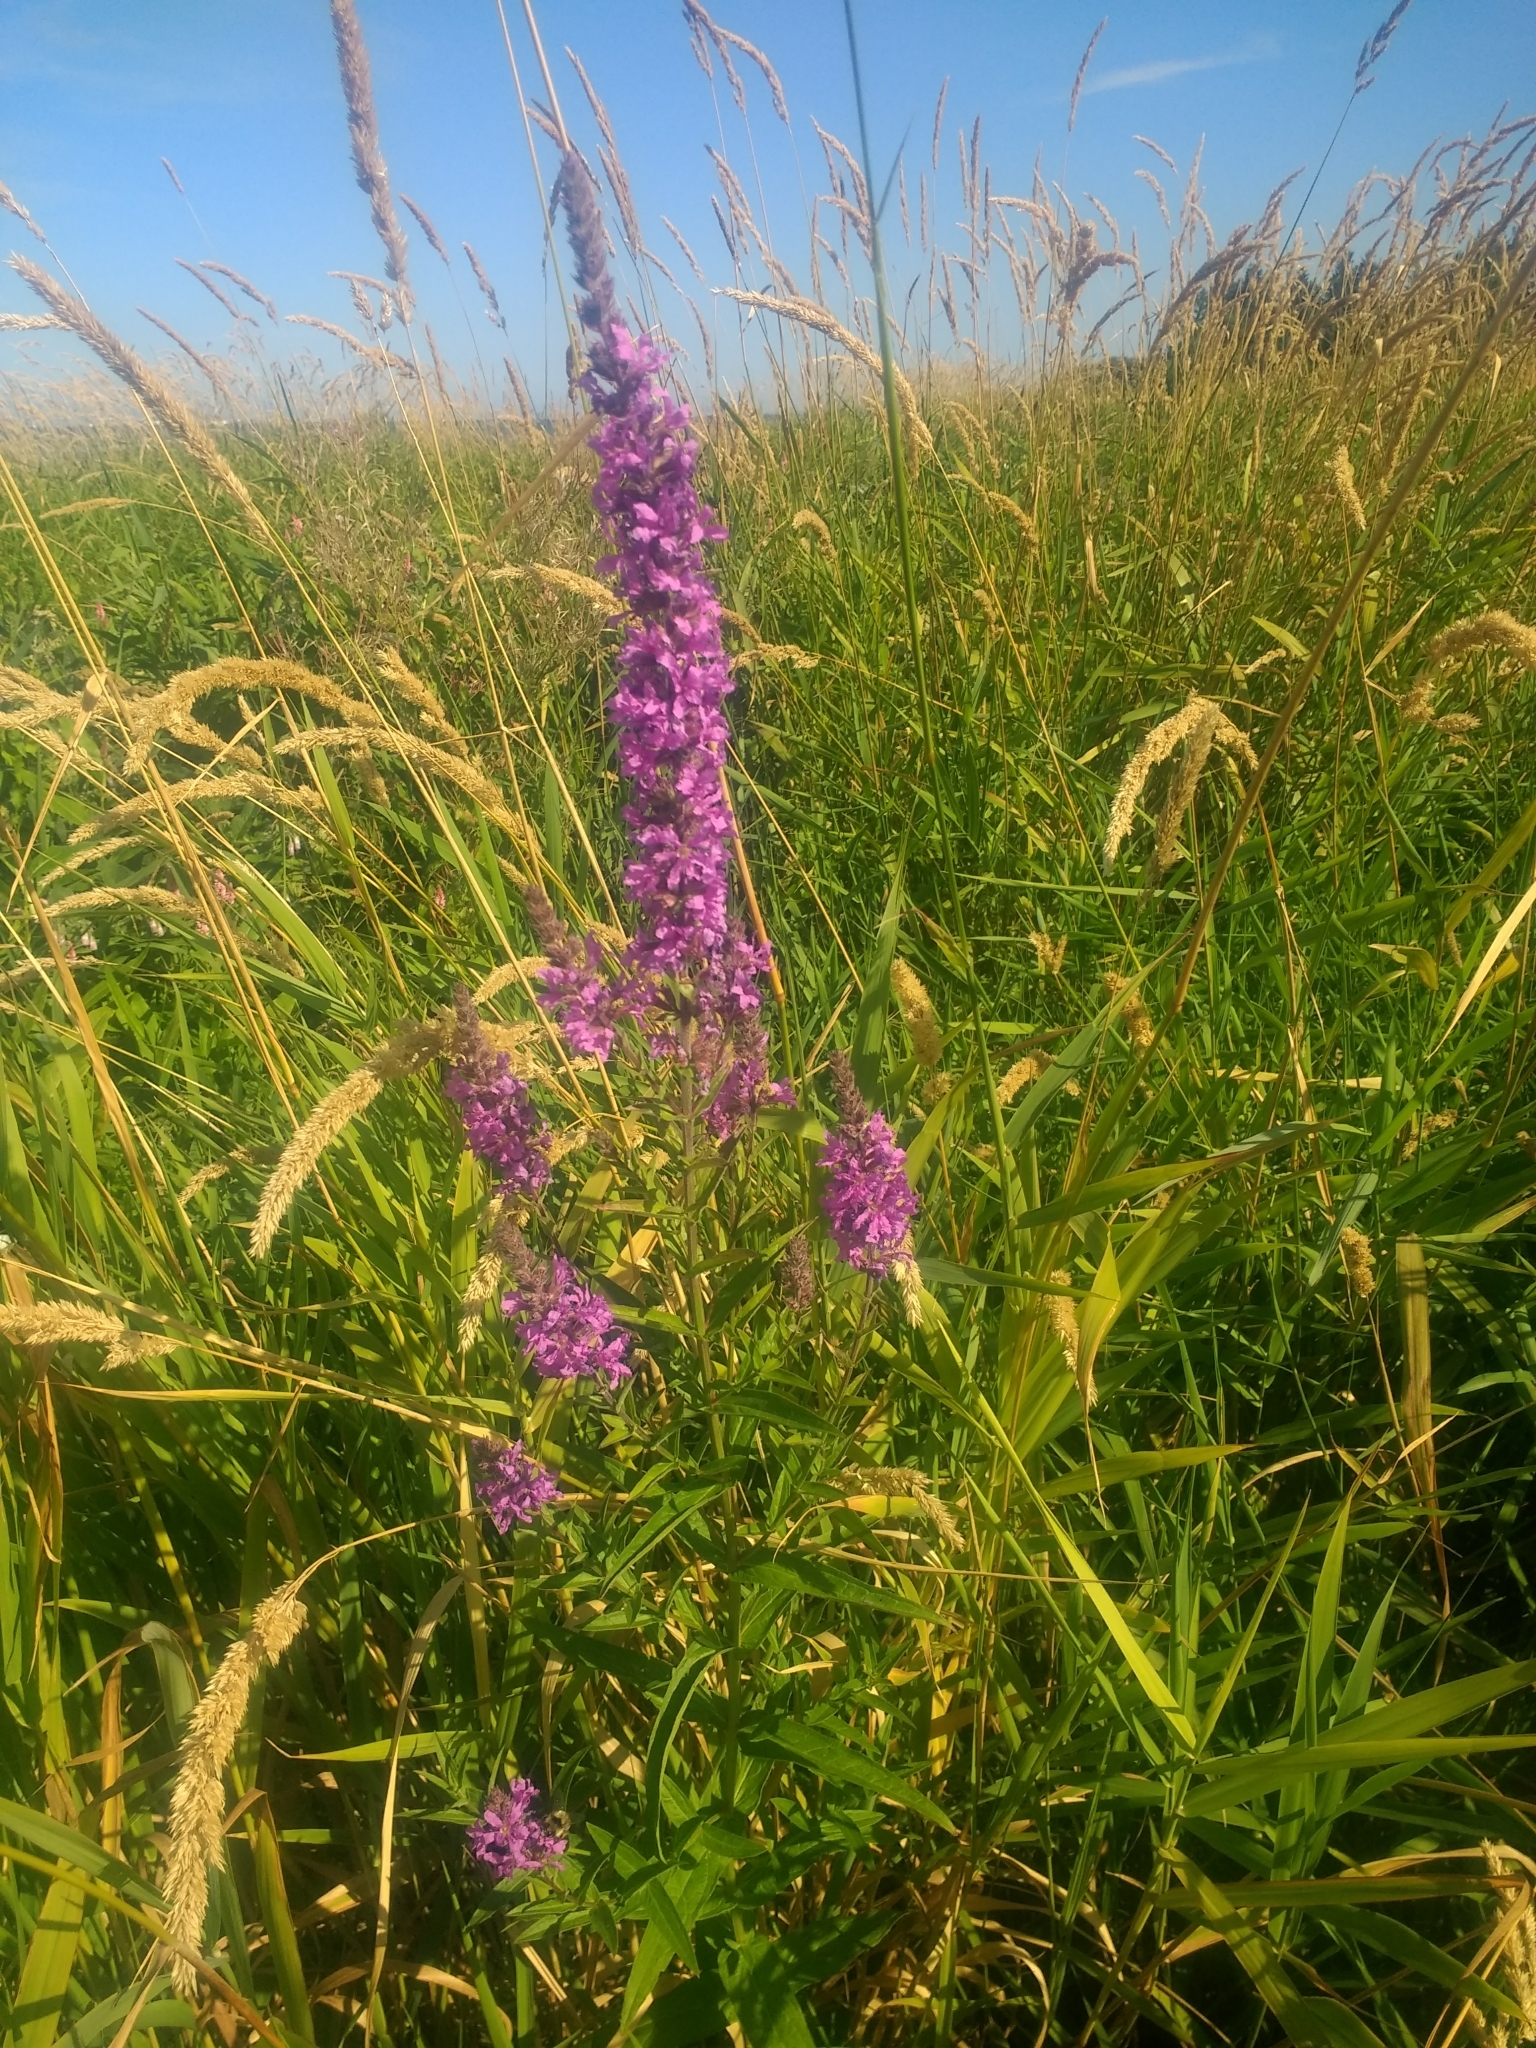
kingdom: Plantae
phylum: Tracheophyta
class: Magnoliopsida
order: Myrtales
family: Lythraceae
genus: Lythrum
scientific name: Lythrum salicaria
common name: Purple loosestrife
